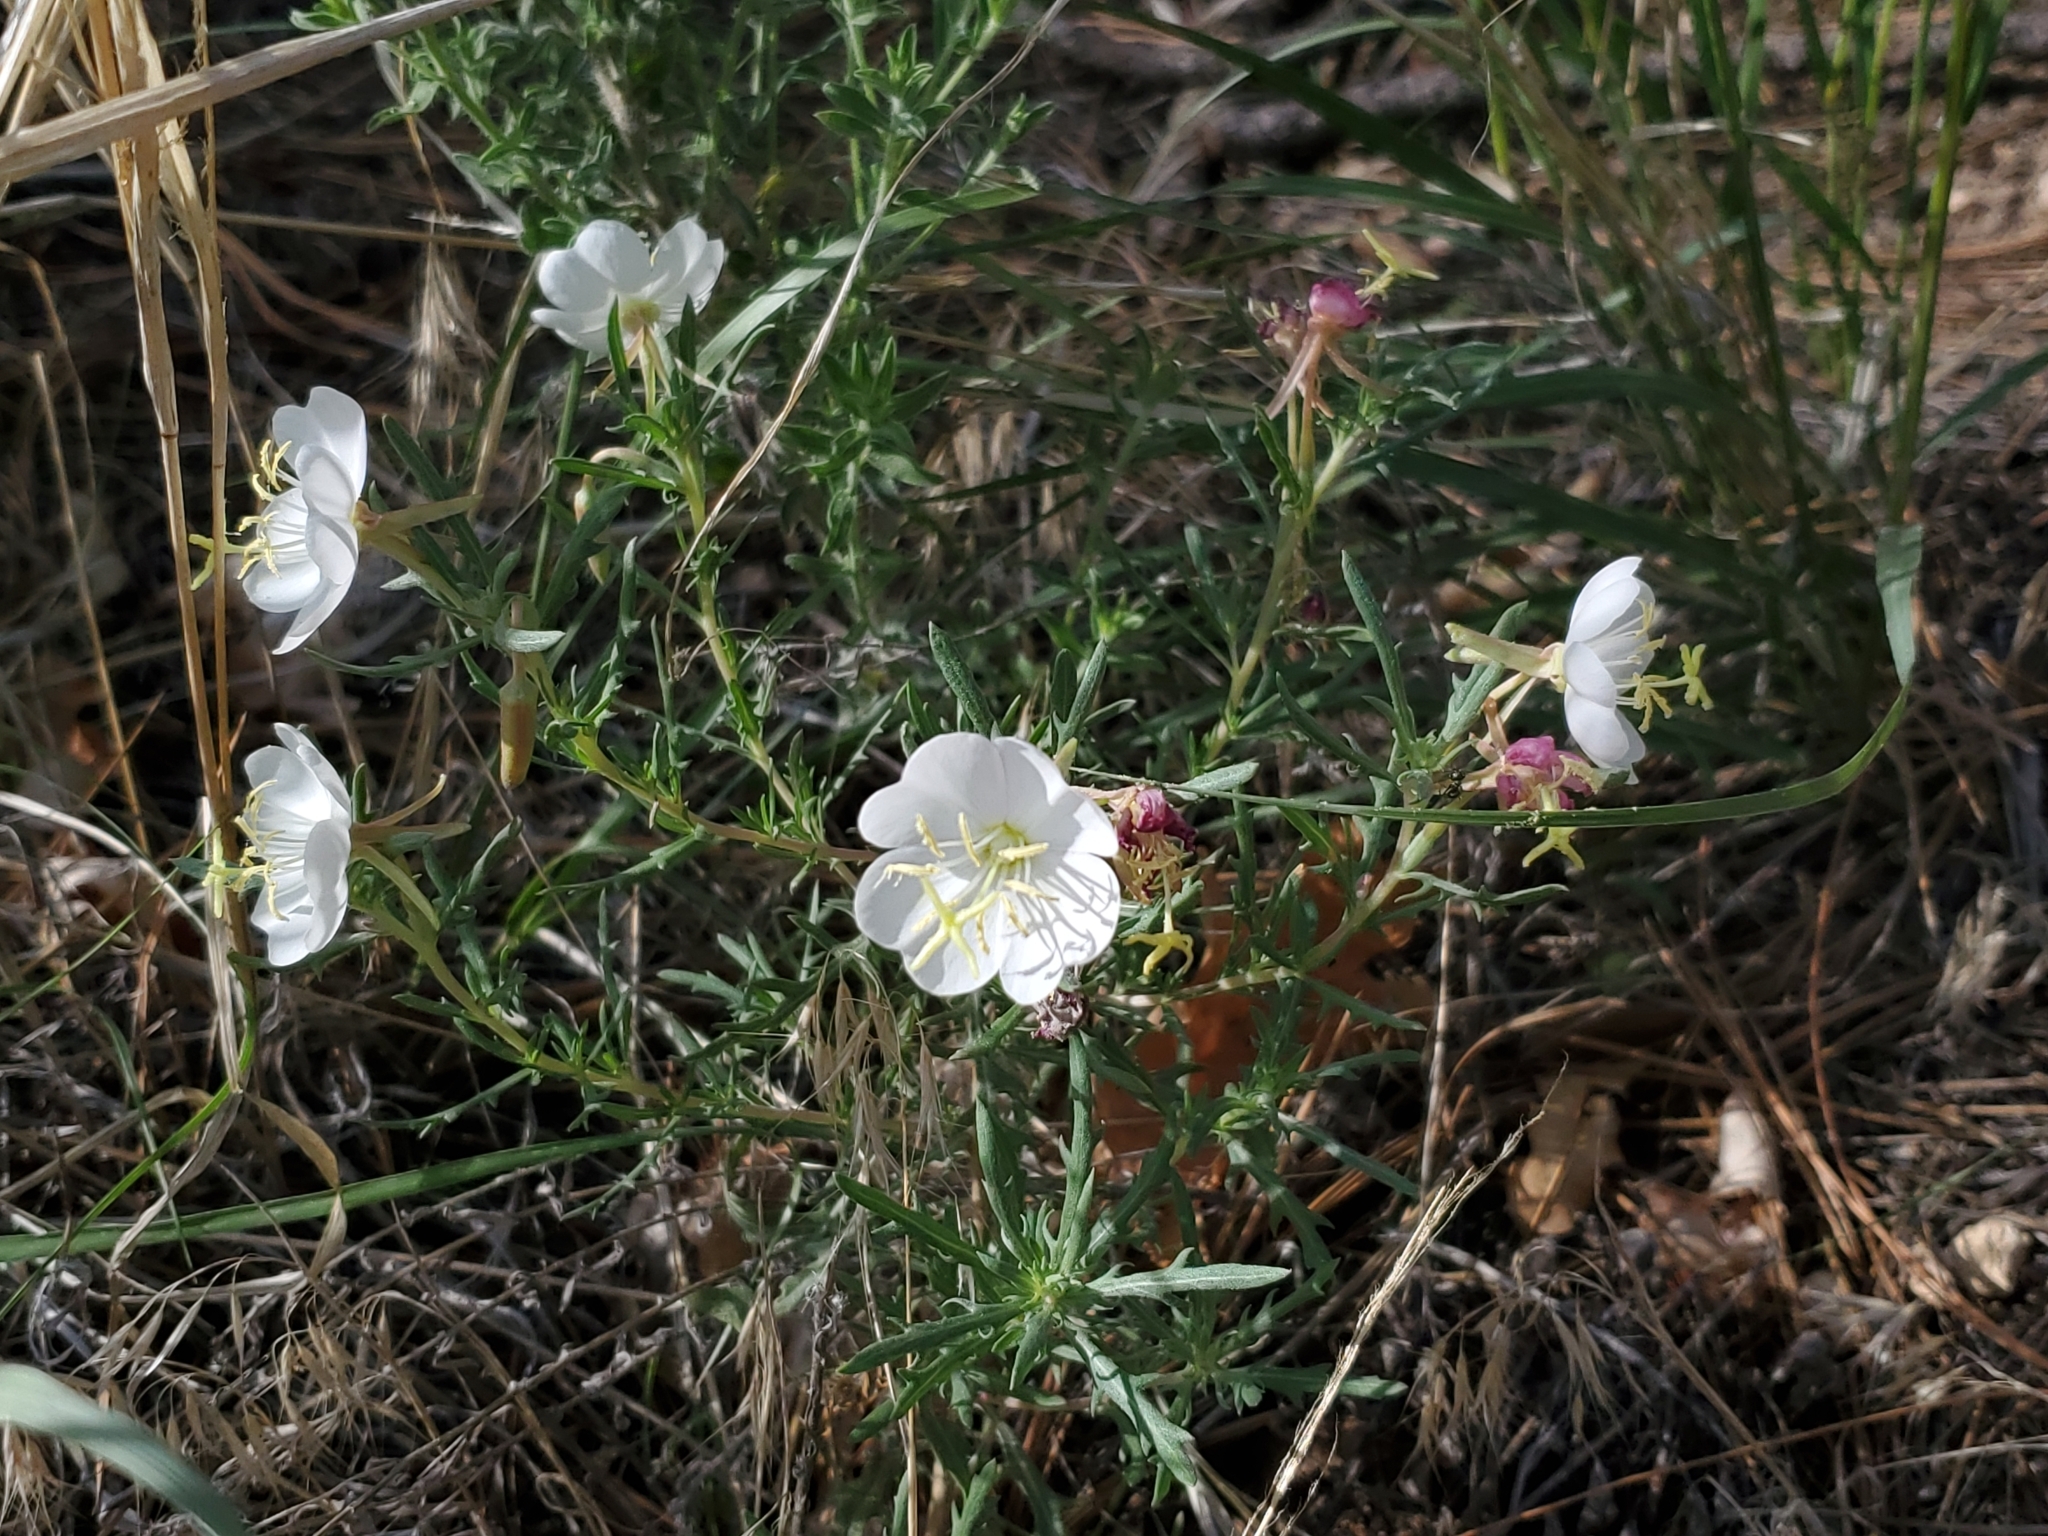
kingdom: Plantae
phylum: Tracheophyta
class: Magnoliopsida
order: Myrtales
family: Onagraceae
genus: Oenothera
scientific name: Oenothera coronopifolia
